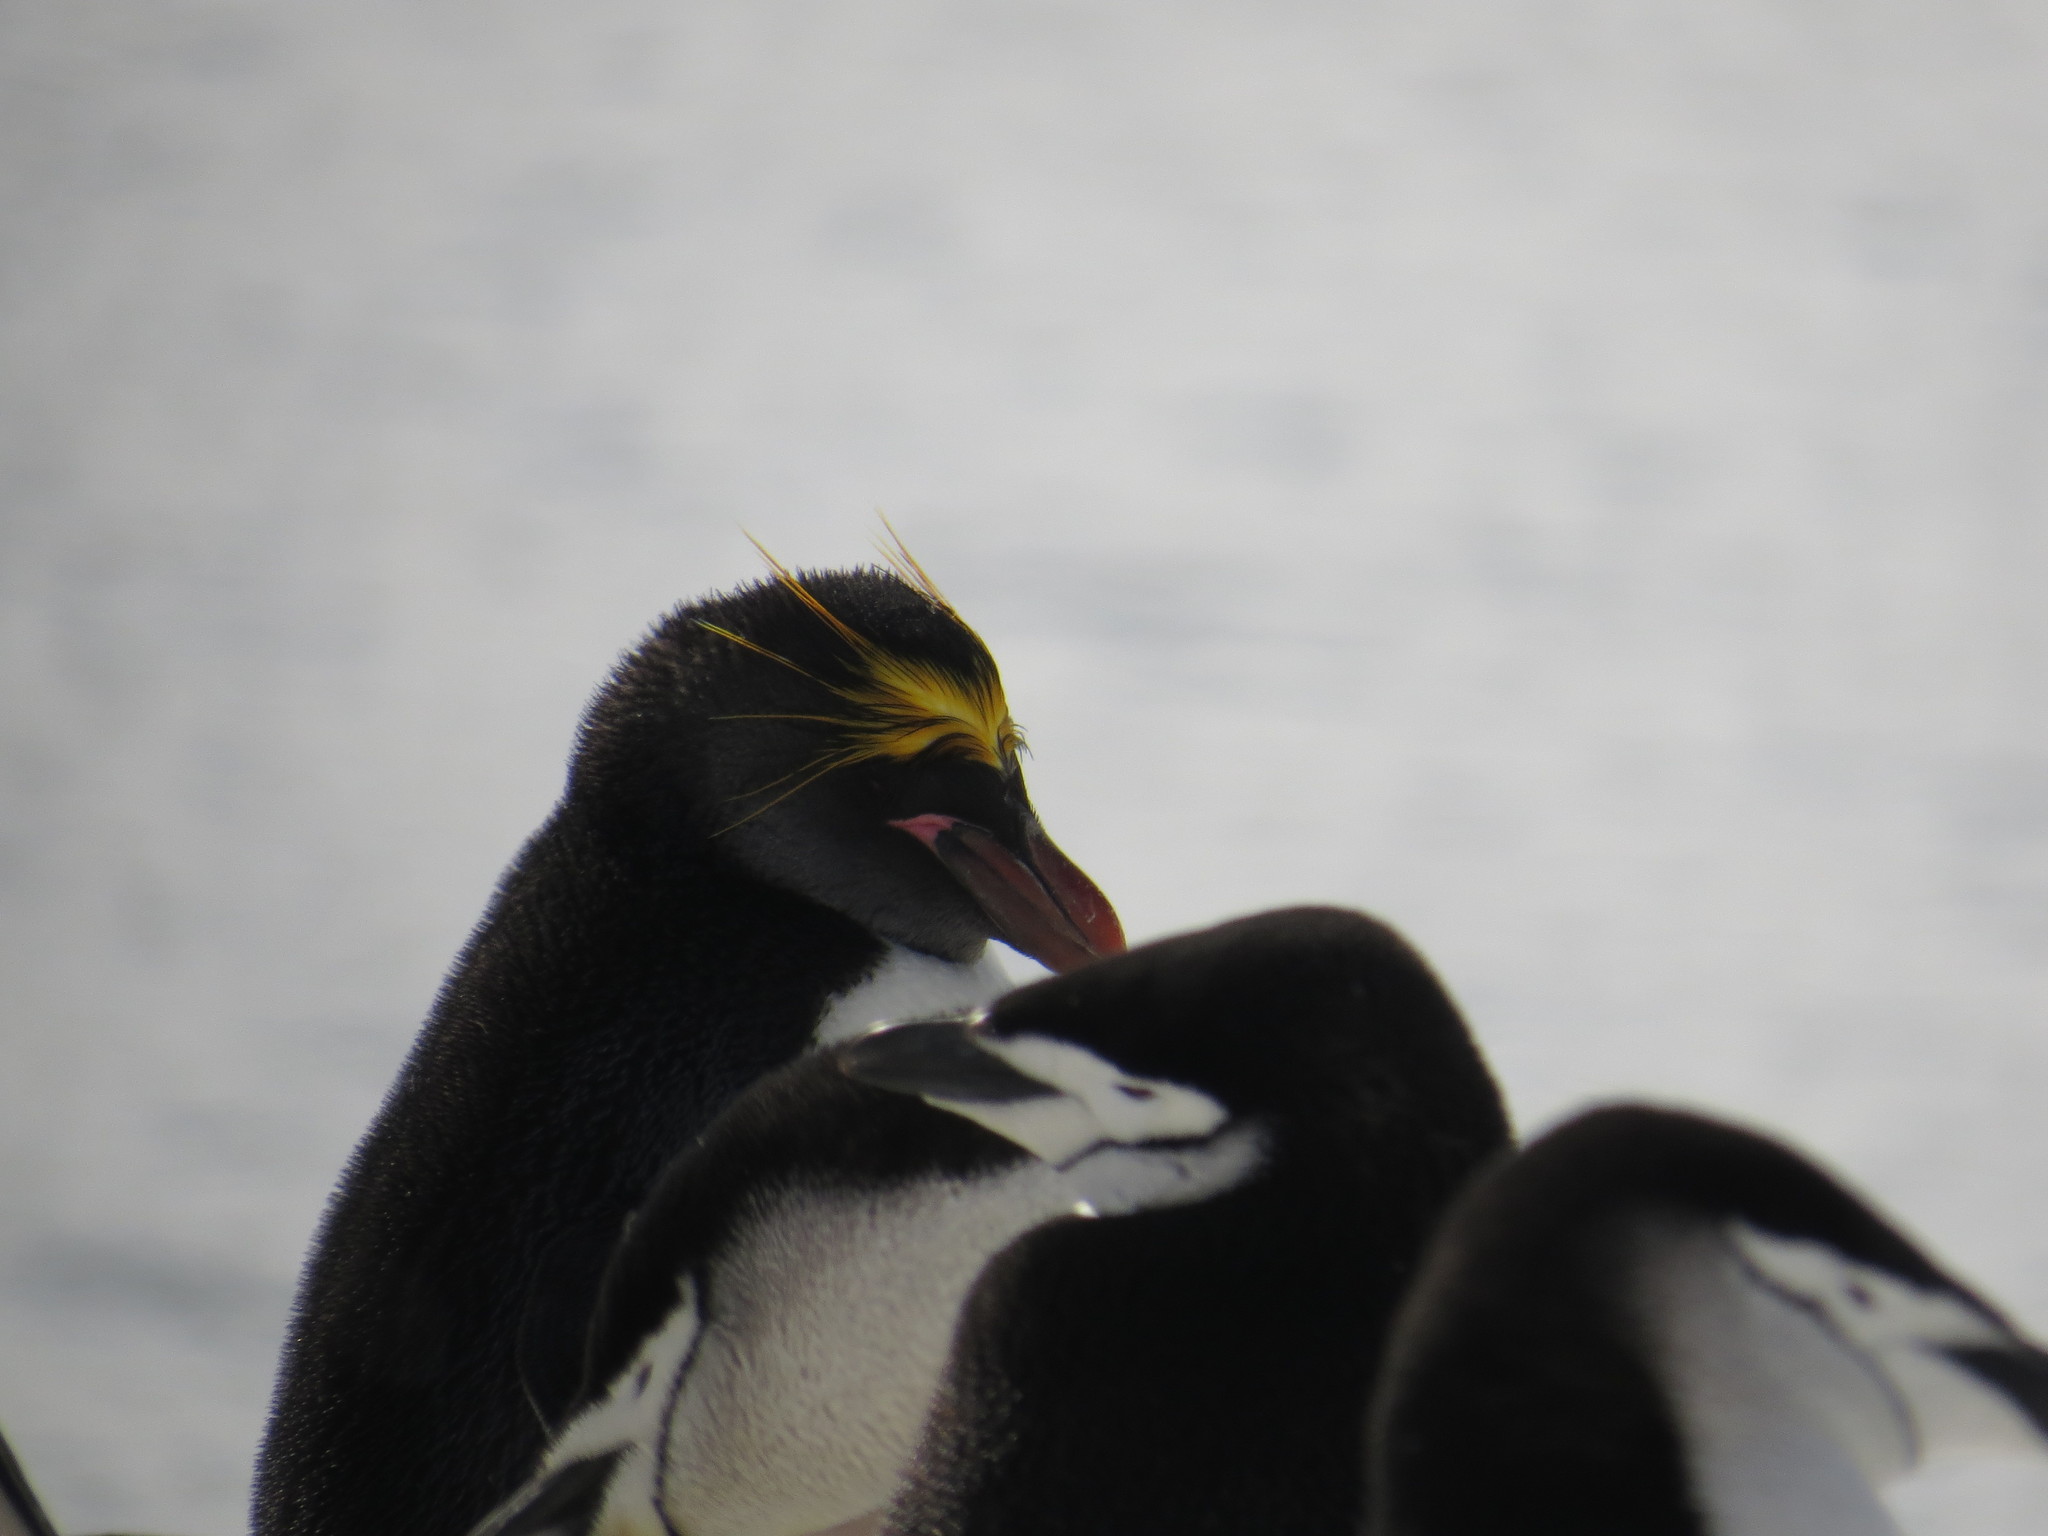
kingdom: Animalia
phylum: Chordata
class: Aves
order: Sphenisciformes
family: Spheniscidae
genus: Eudyptes
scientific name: Eudyptes chrysolophus
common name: Macaroni penguin
